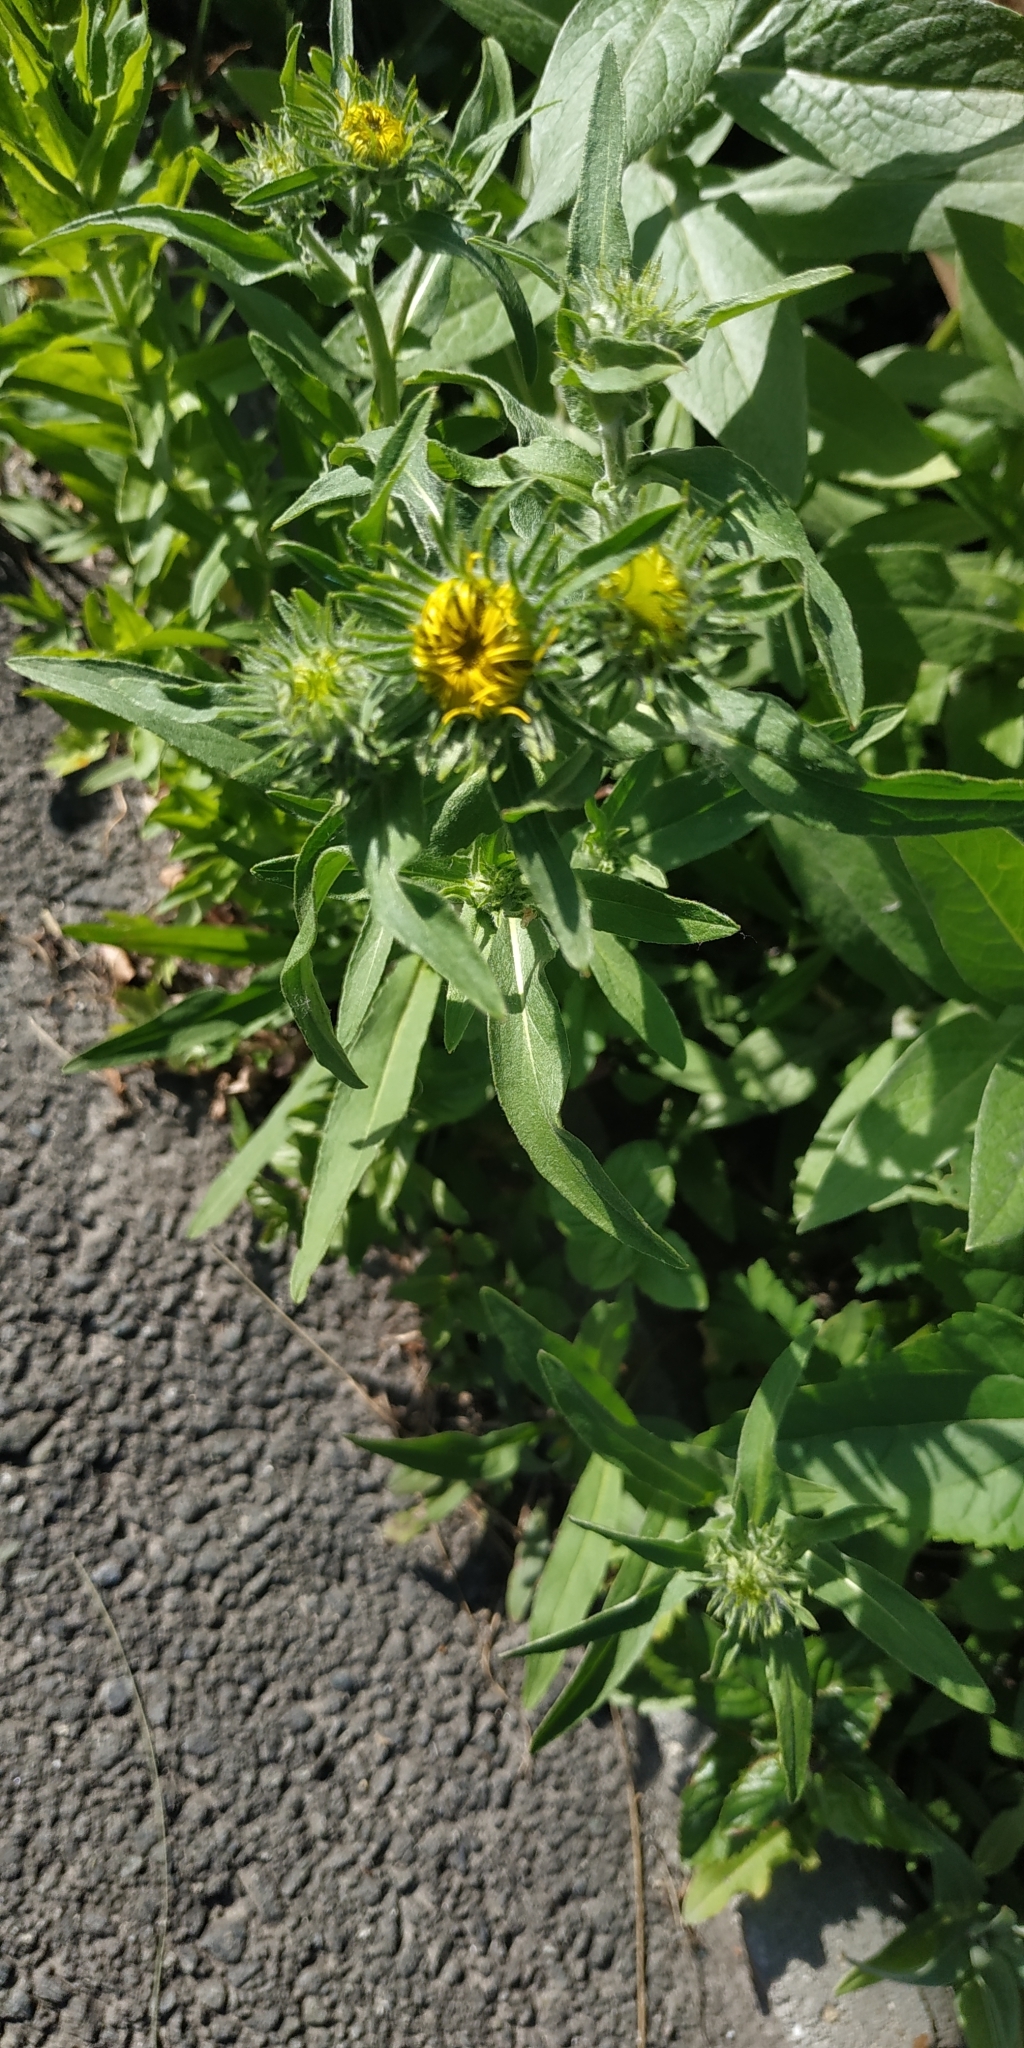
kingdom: Plantae
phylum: Tracheophyta
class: Magnoliopsida
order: Asterales
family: Asteraceae
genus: Pentanema
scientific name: Pentanema britannicum
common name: British elecampane
